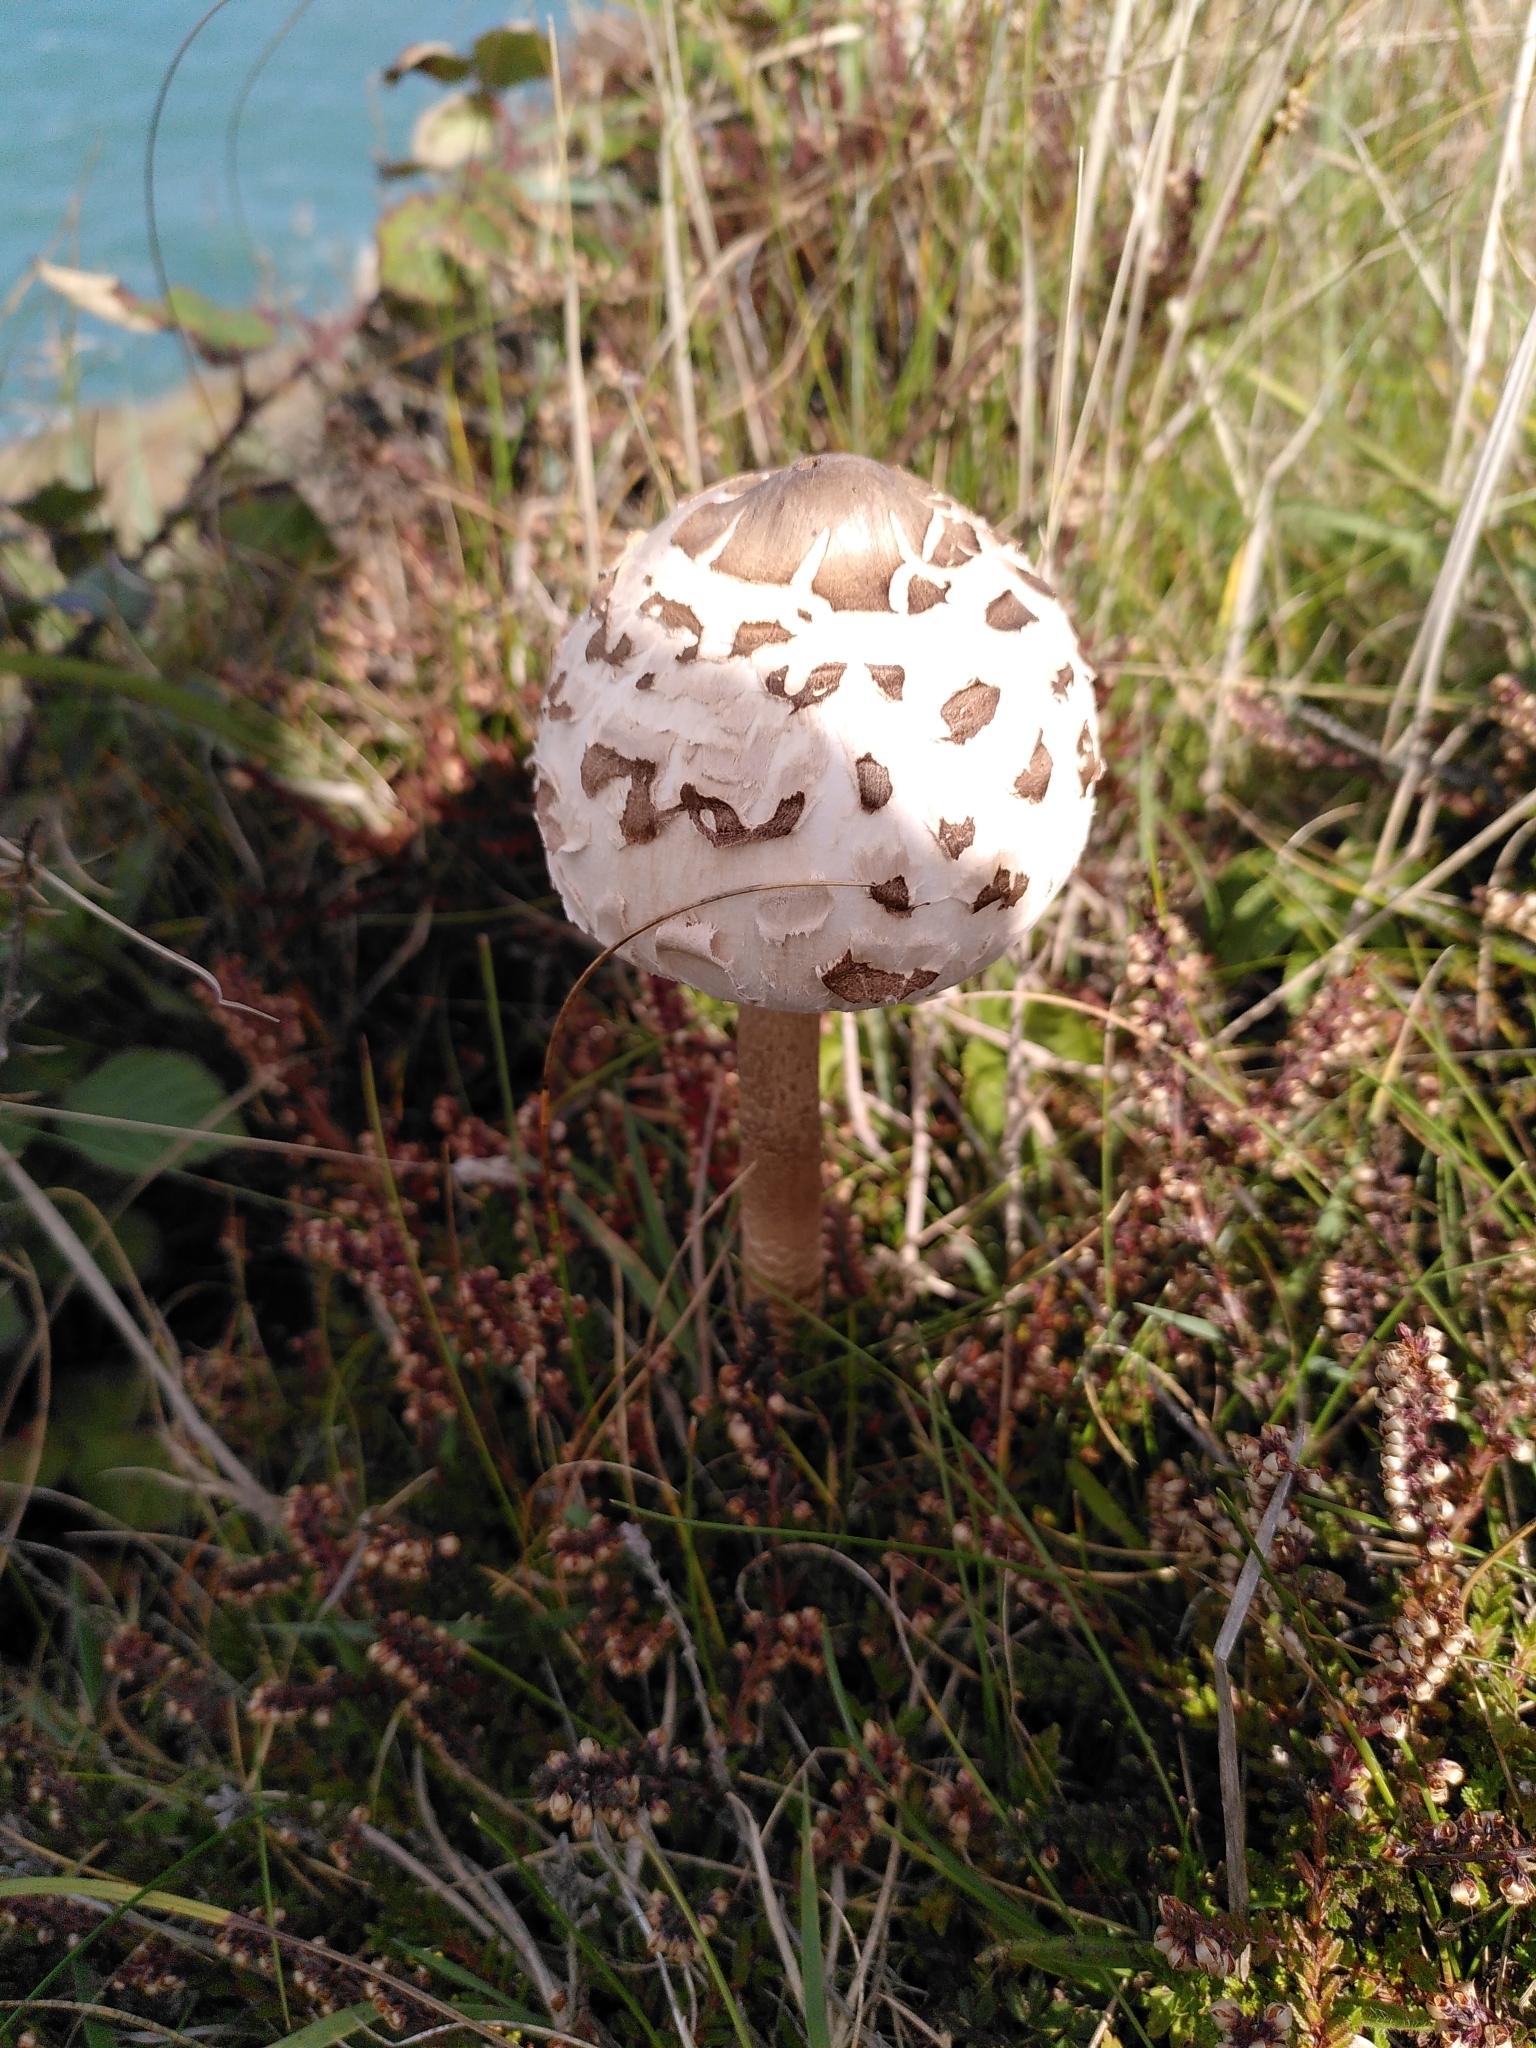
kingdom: Fungi
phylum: Basidiomycota
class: Agaricomycetes
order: Agaricales
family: Agaricaceae
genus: Macrolepiota
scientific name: Macrolepiota procera
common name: Parasol
